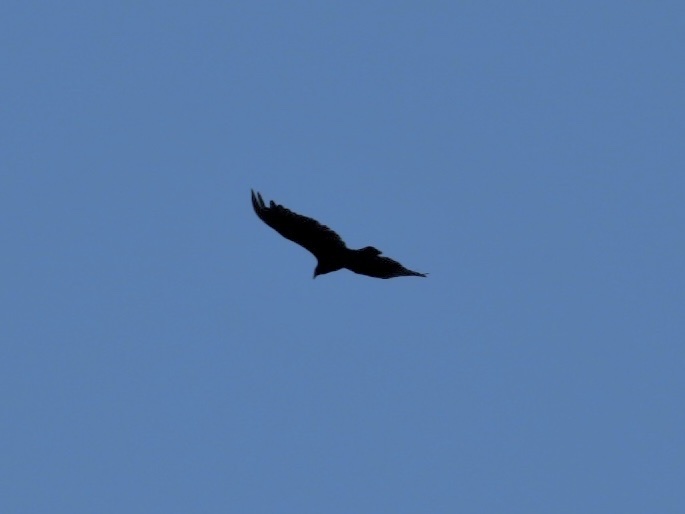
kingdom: Animalia
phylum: Chordata
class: Aves
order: Accipitriformes
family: Cathartidae
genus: Cathartes
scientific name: Cathartes aura
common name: Turkey vulture
